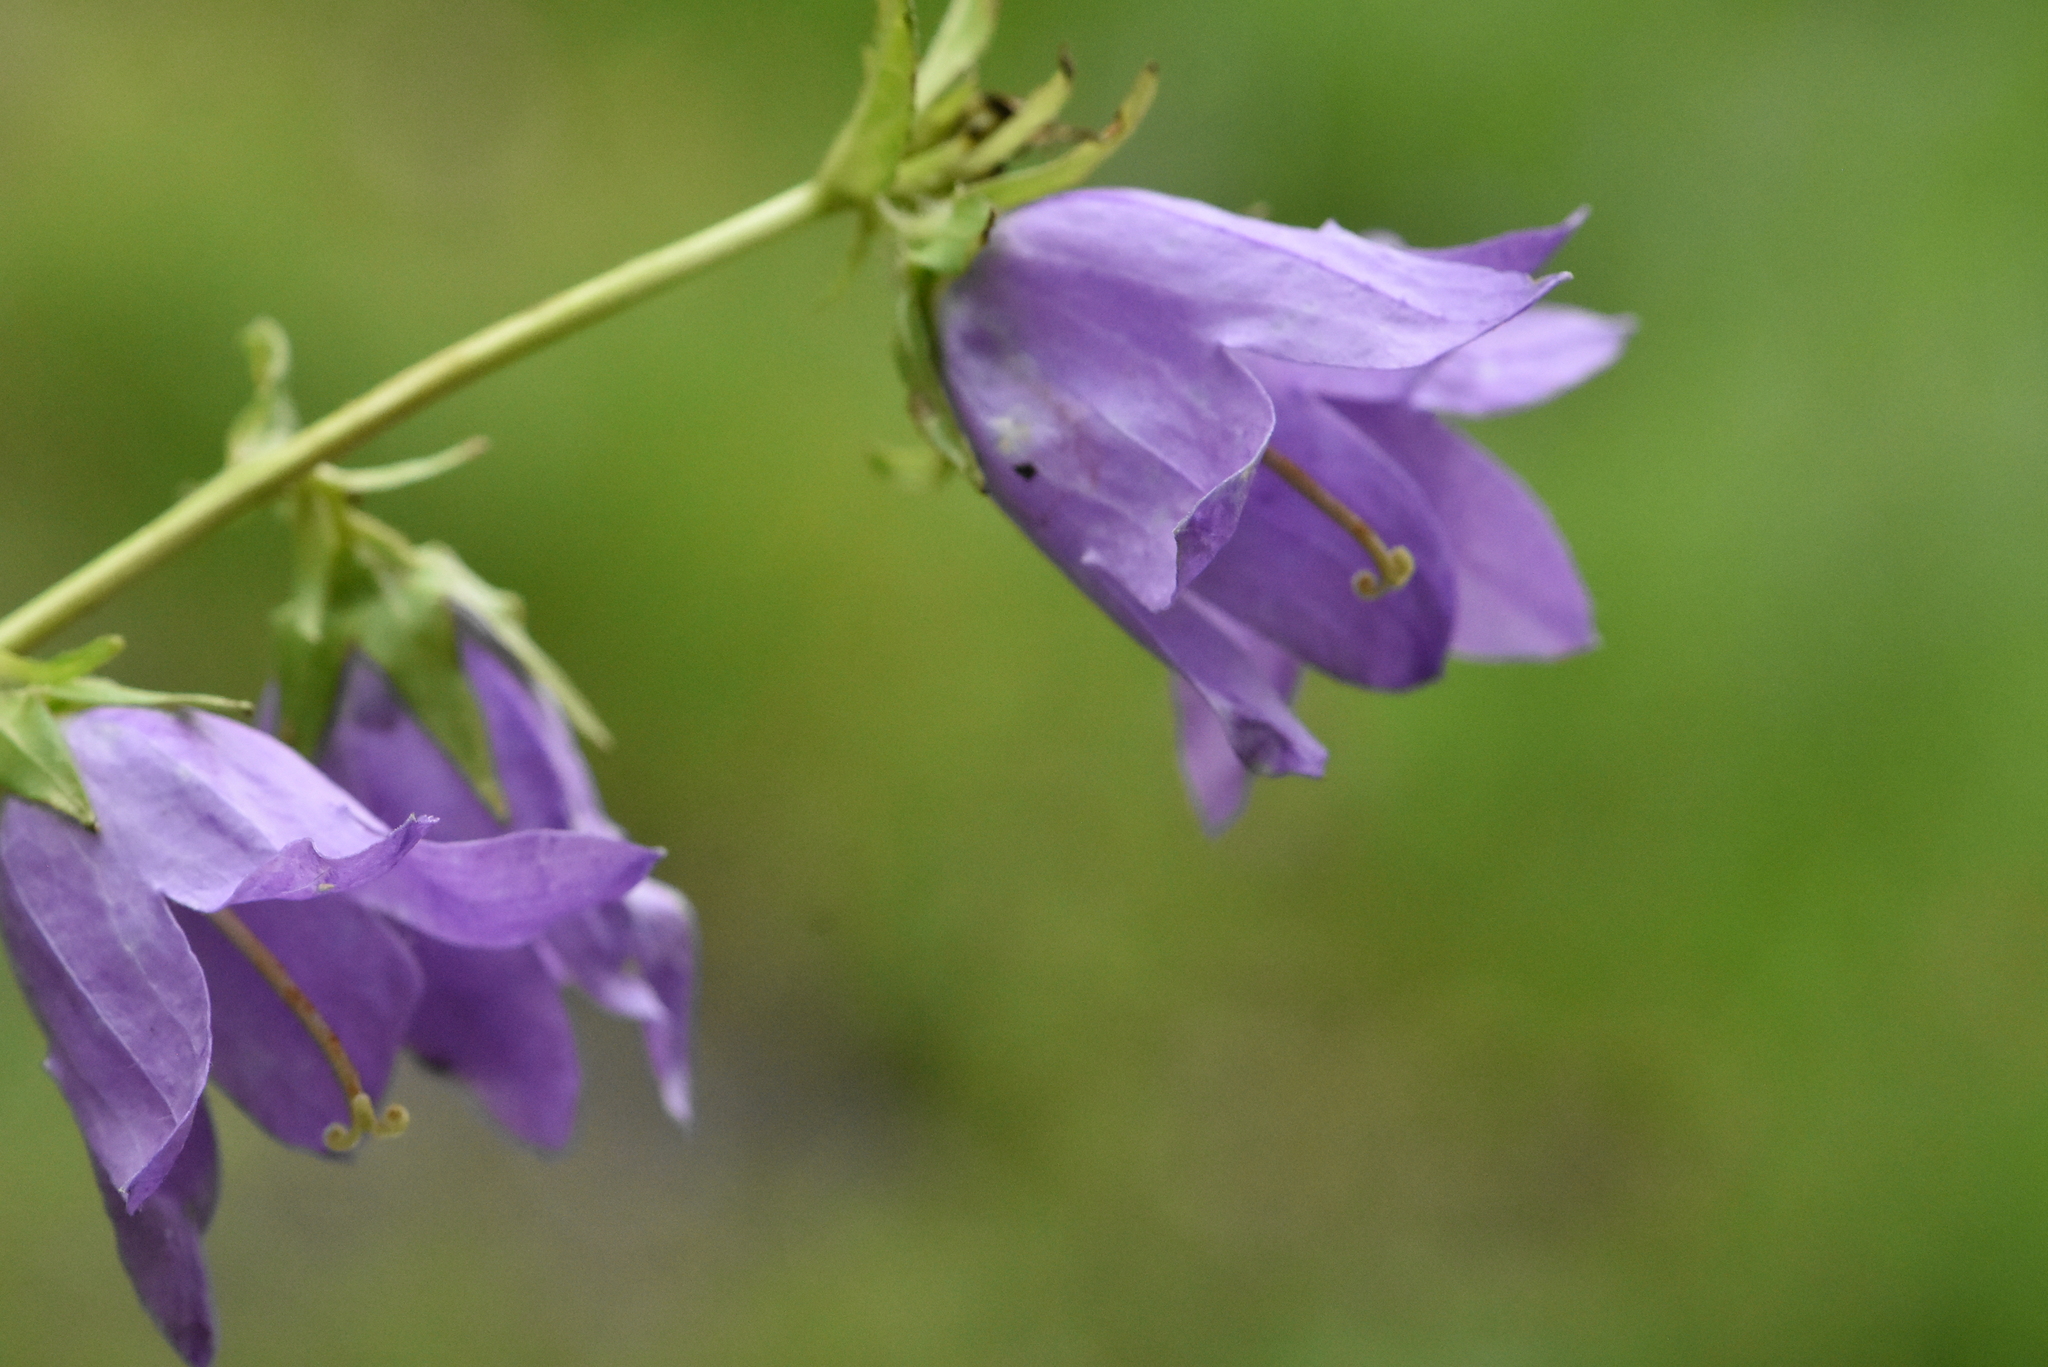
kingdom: Plantae
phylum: Tracheophyta
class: Magnoliopsida
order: Asterales
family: Campanulaceae
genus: Campanula
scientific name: Campanula trachelium
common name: Nettle-leaved bellflower
